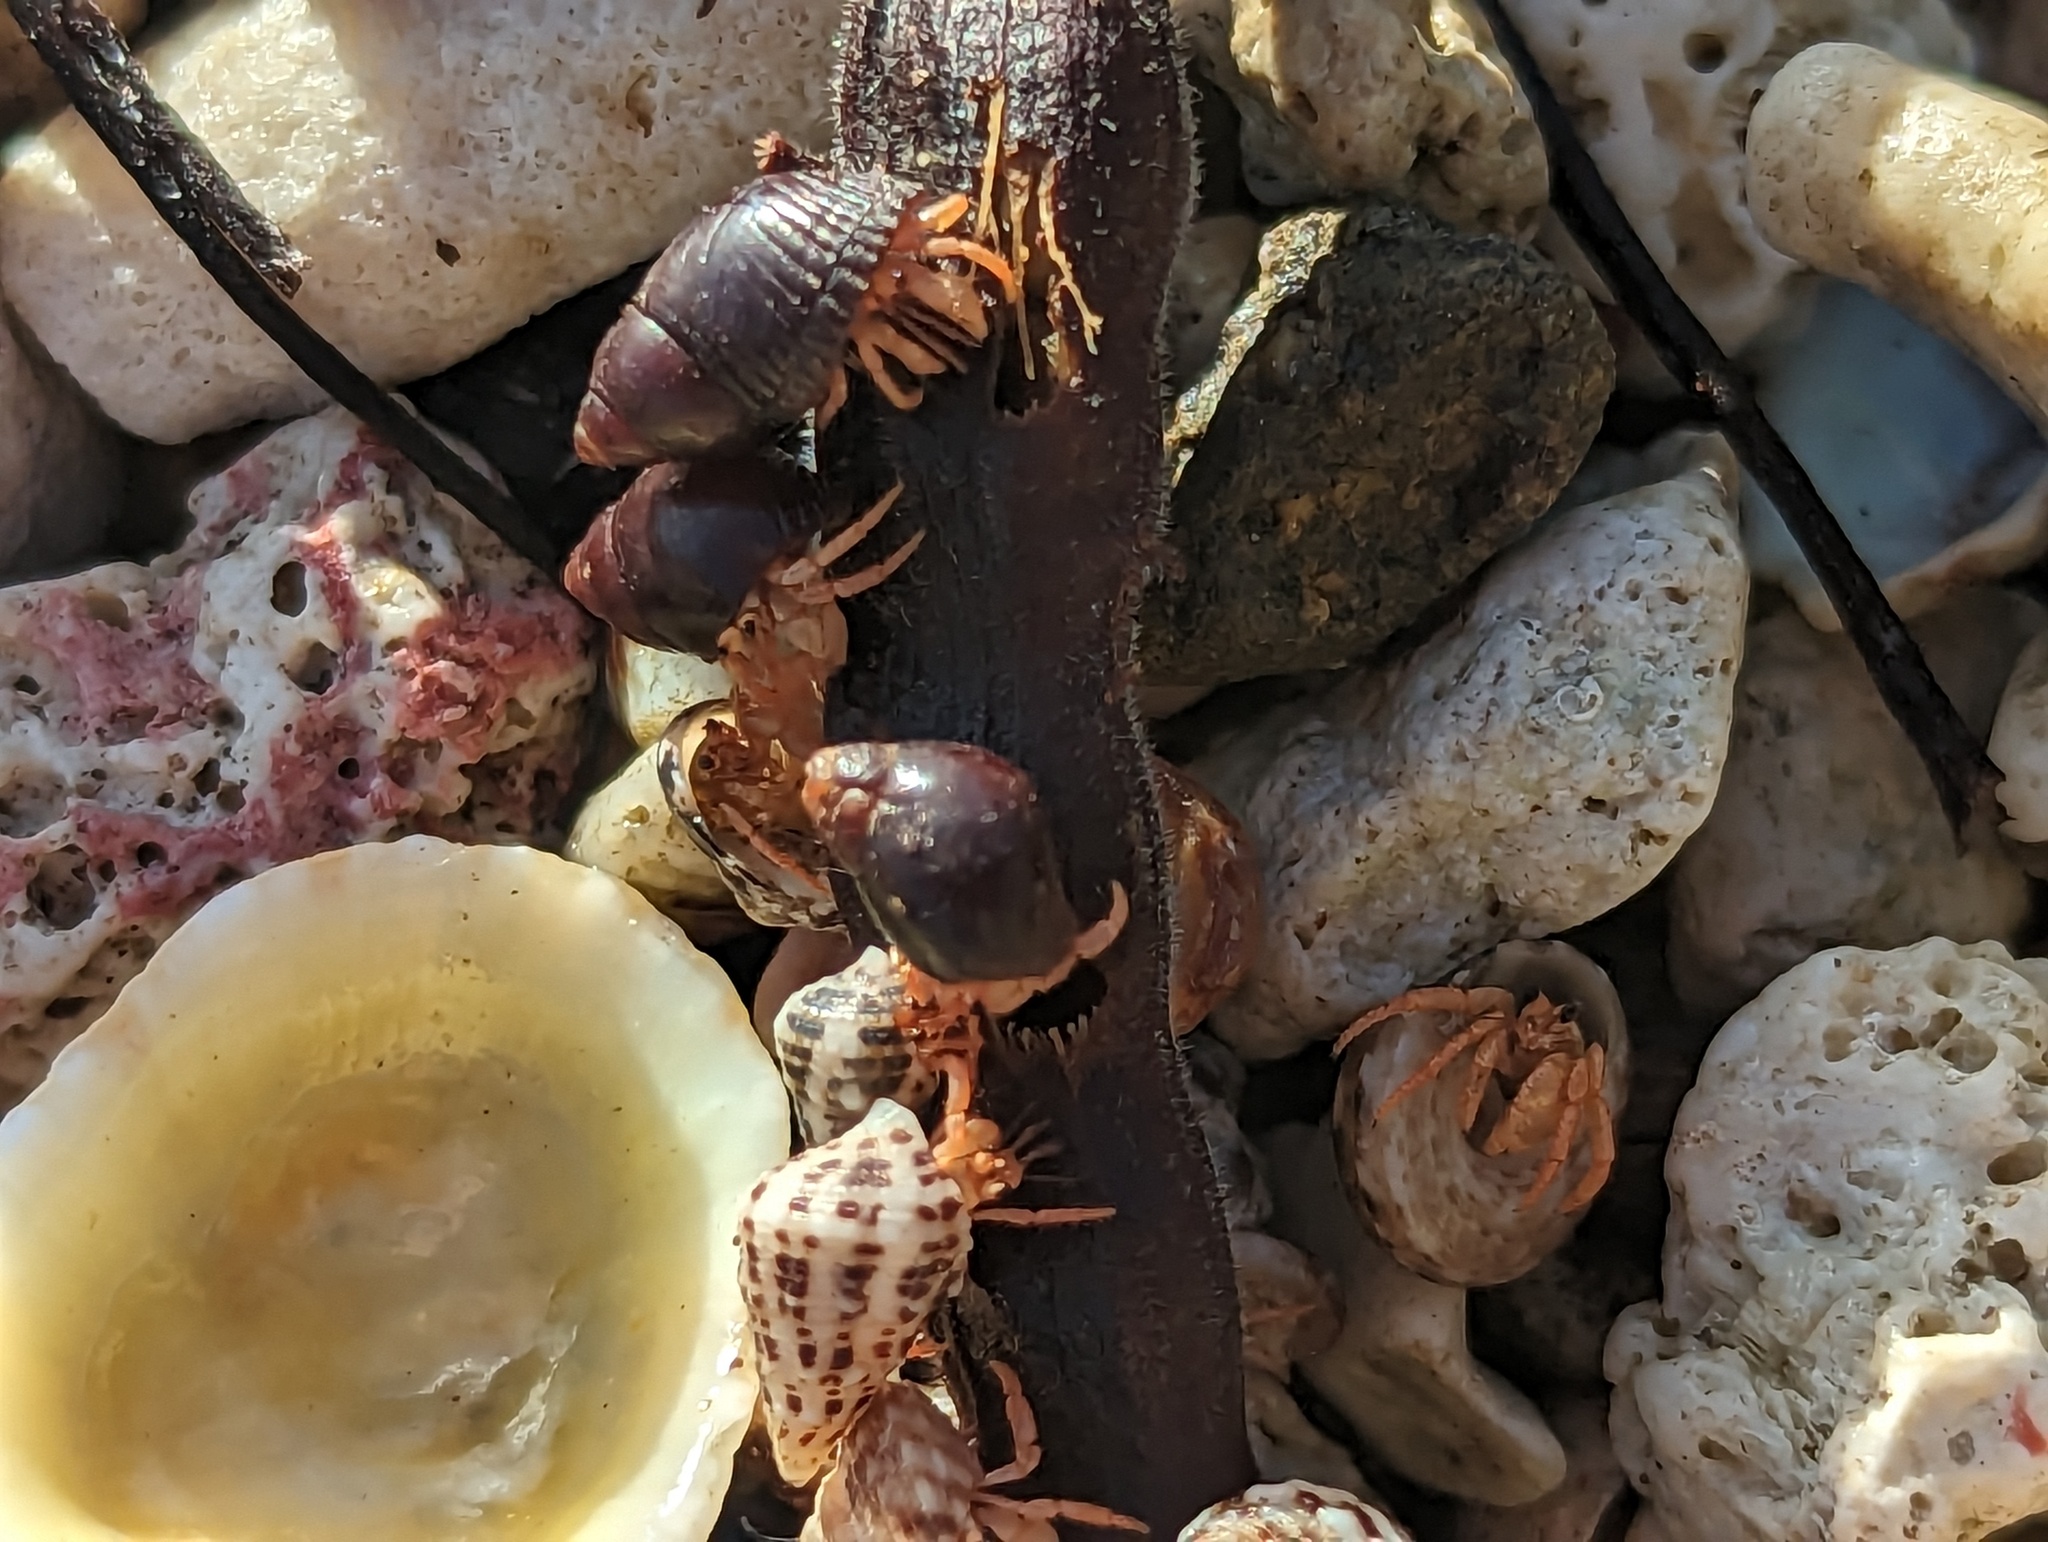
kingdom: Animalia
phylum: Arthropoda
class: Malacostraca
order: Decapoda
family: Coenobitidae
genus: Coenobita
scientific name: Coenobita clypeatus
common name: Caribbean hermit crab
